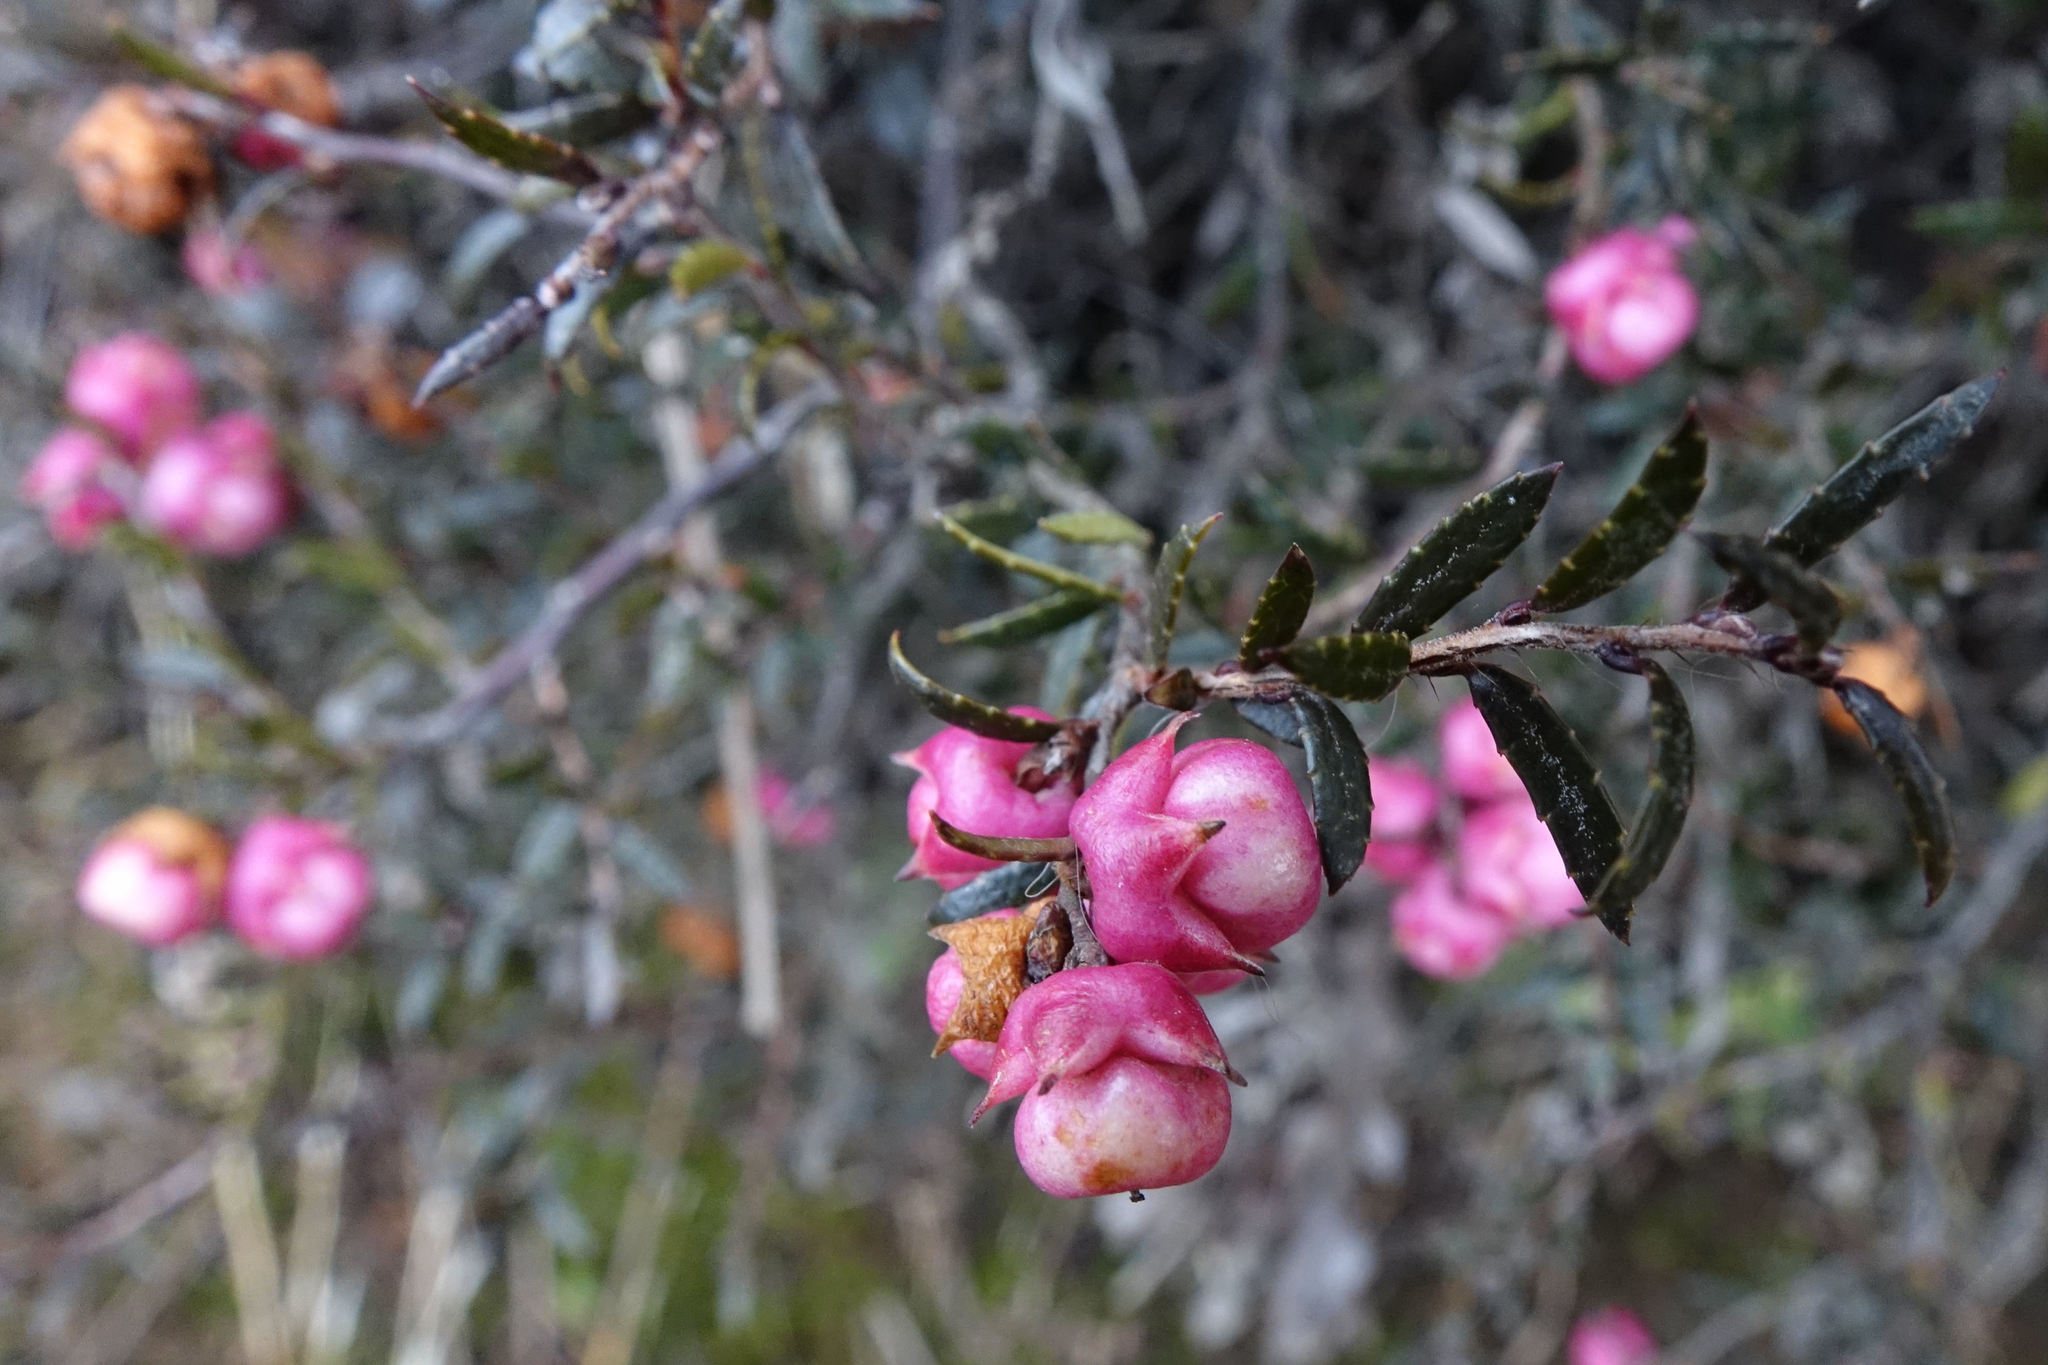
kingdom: Plantae
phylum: Tracheophyta
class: Magnoliopsida
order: Ericales
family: Ericaceae
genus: Gaultheria
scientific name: Gaultheria macrostigma
